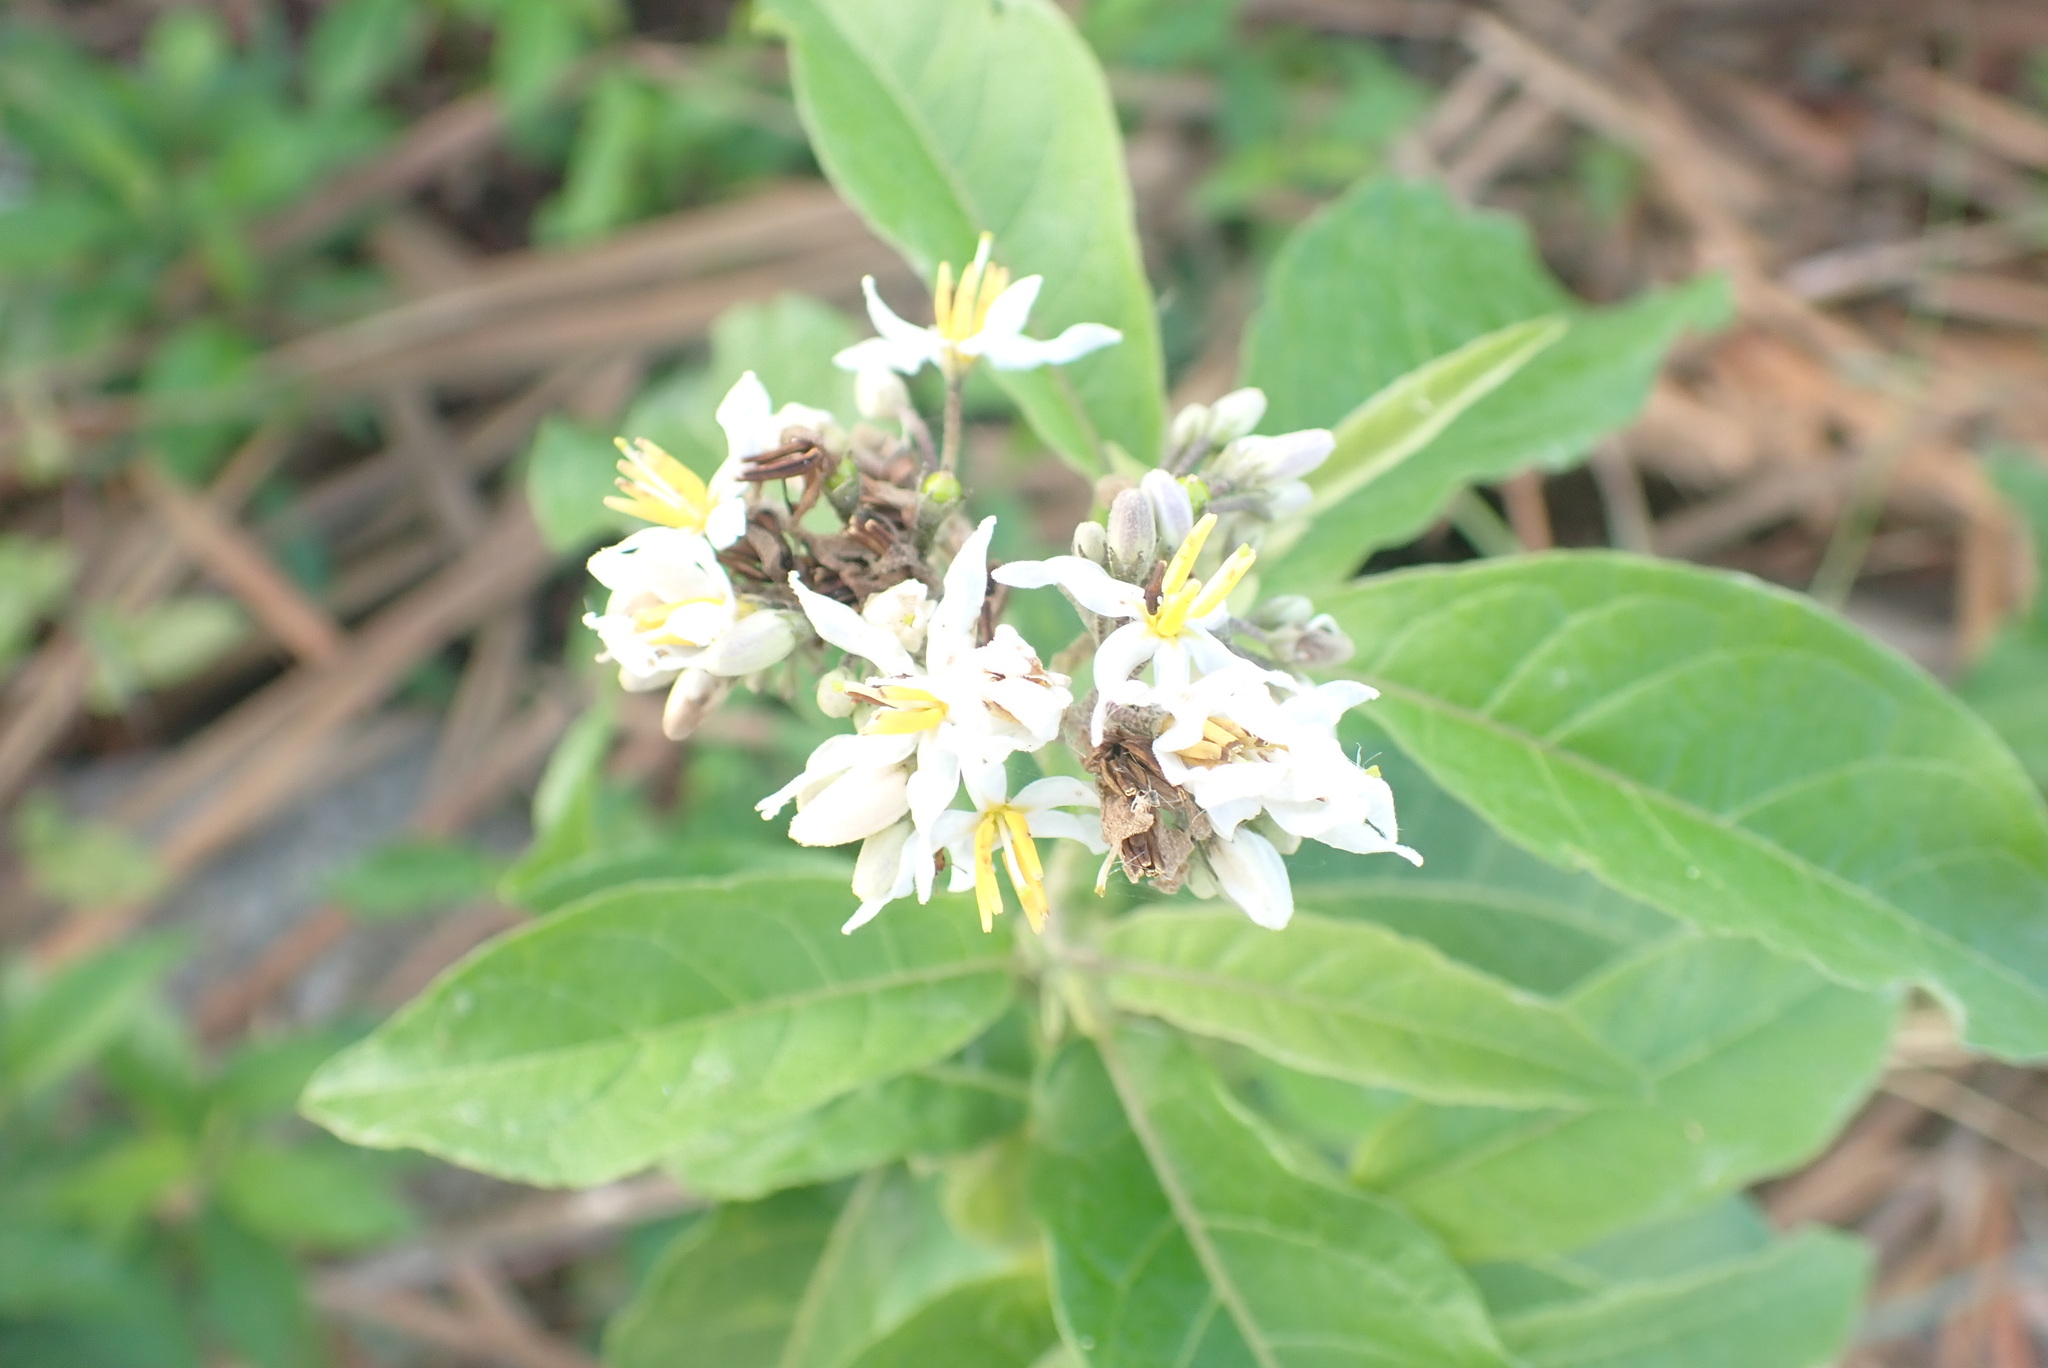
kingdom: Plantae
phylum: Tracheophyta
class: Magnoliopsida
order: Solanales
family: Solanaceae
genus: Solanum
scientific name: Solanum donianum
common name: Mullein nightshade
